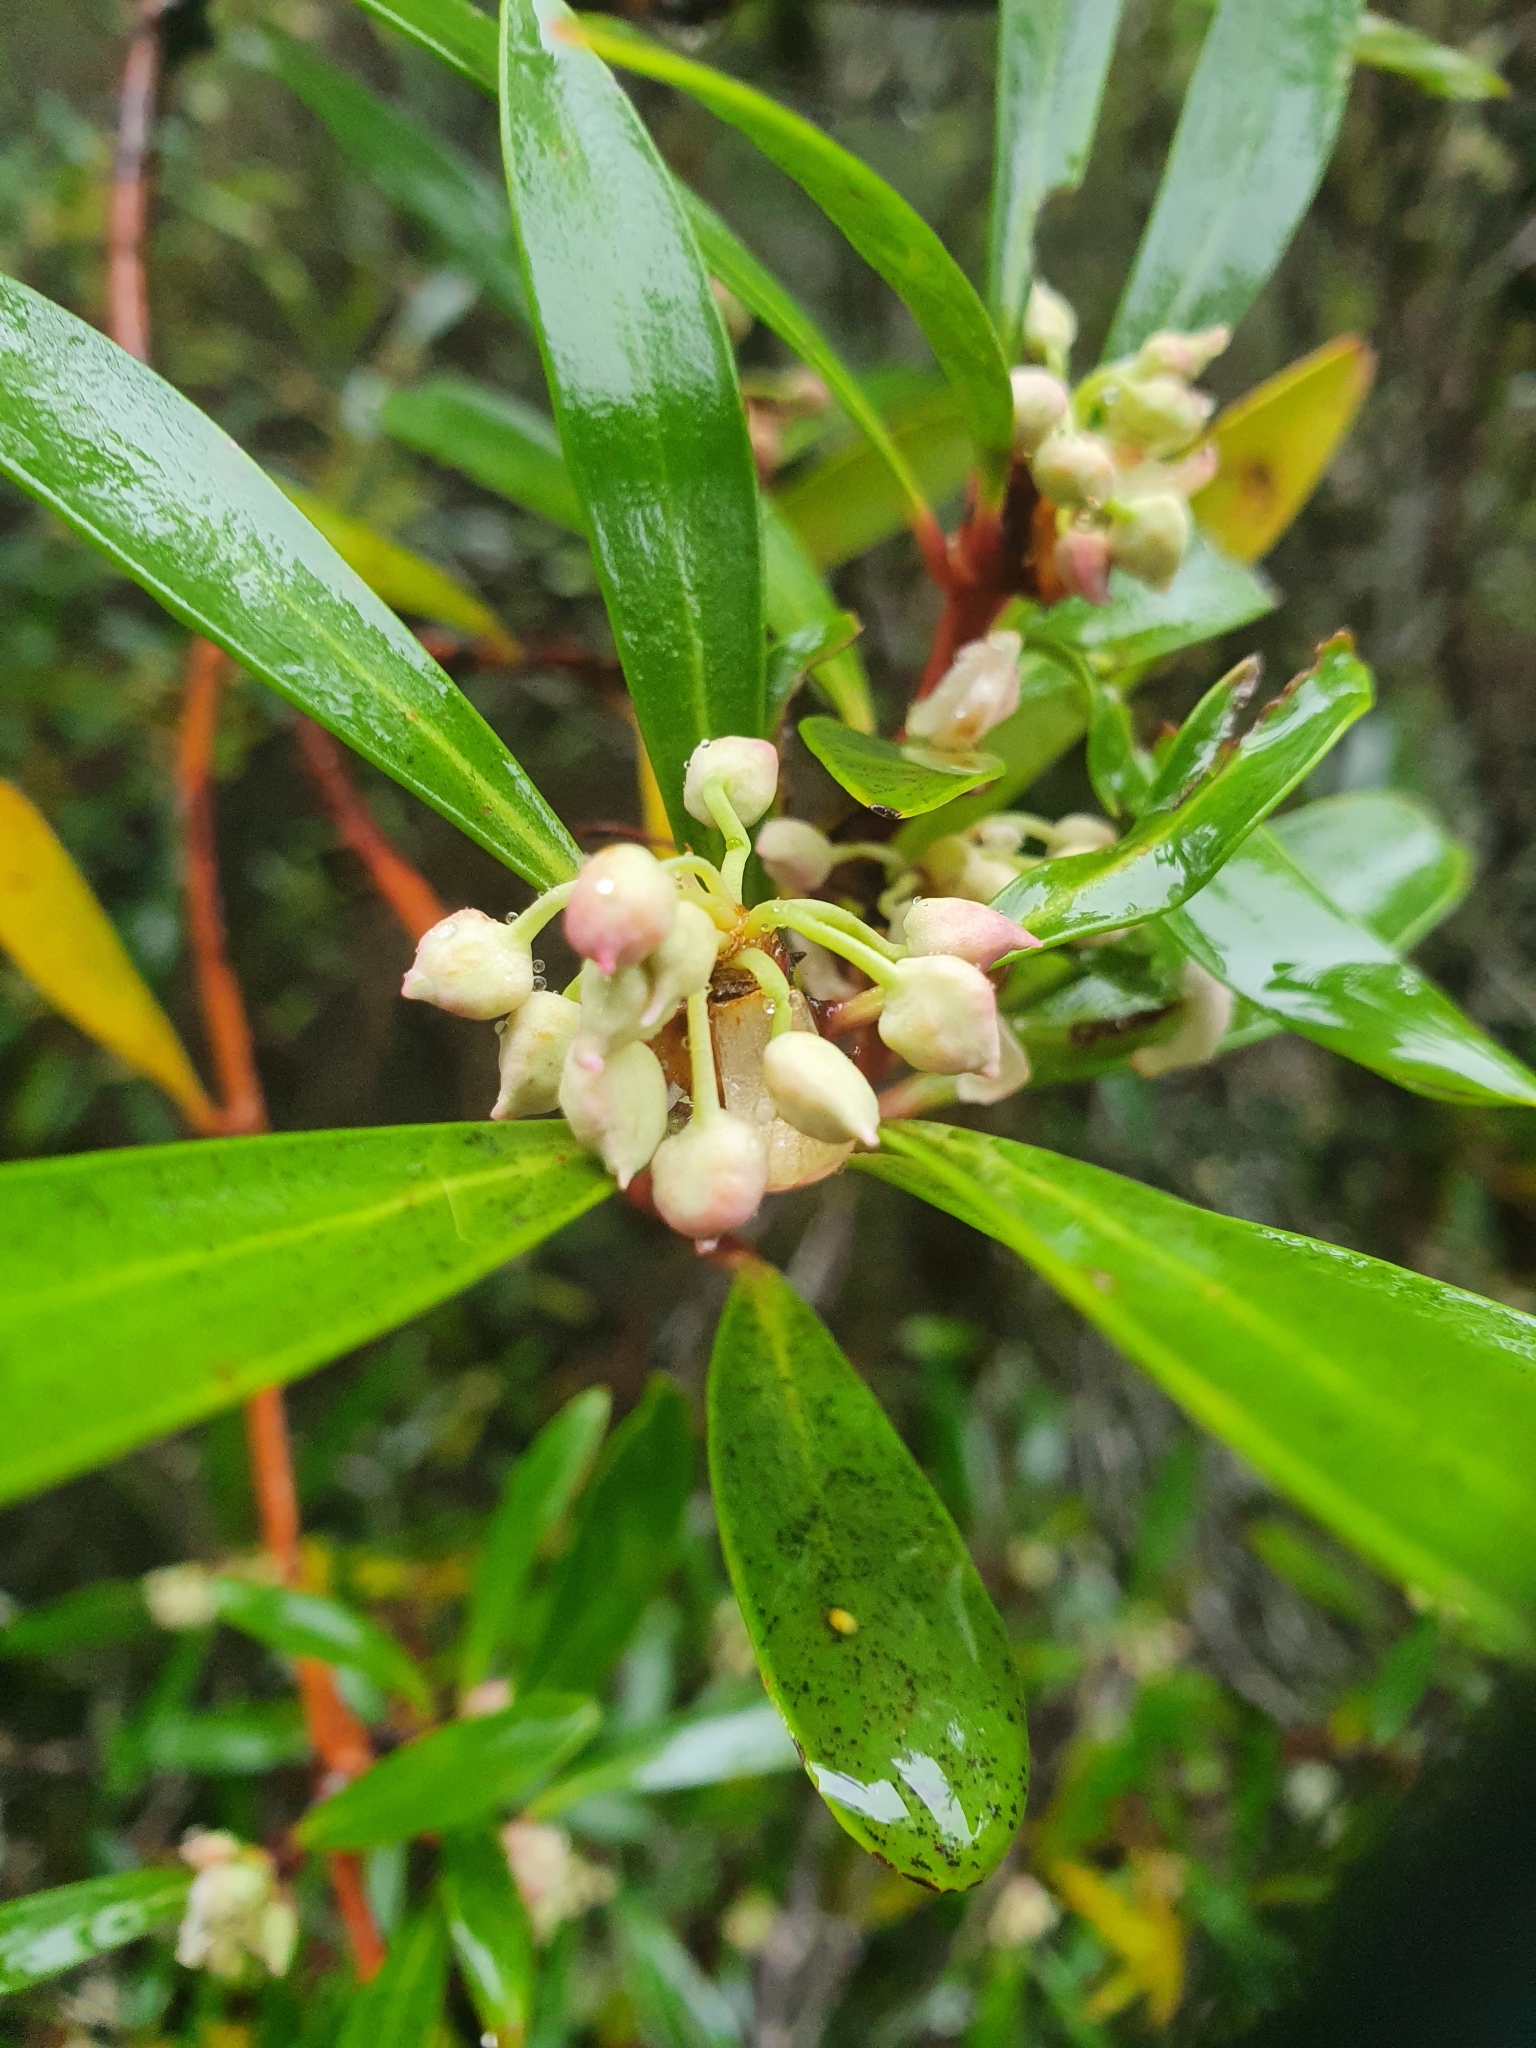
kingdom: Plantae
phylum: Tracheophyta
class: Magnoliopsida
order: Canellales
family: Winteraceae
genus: Drimys
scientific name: Drimys aromatica
